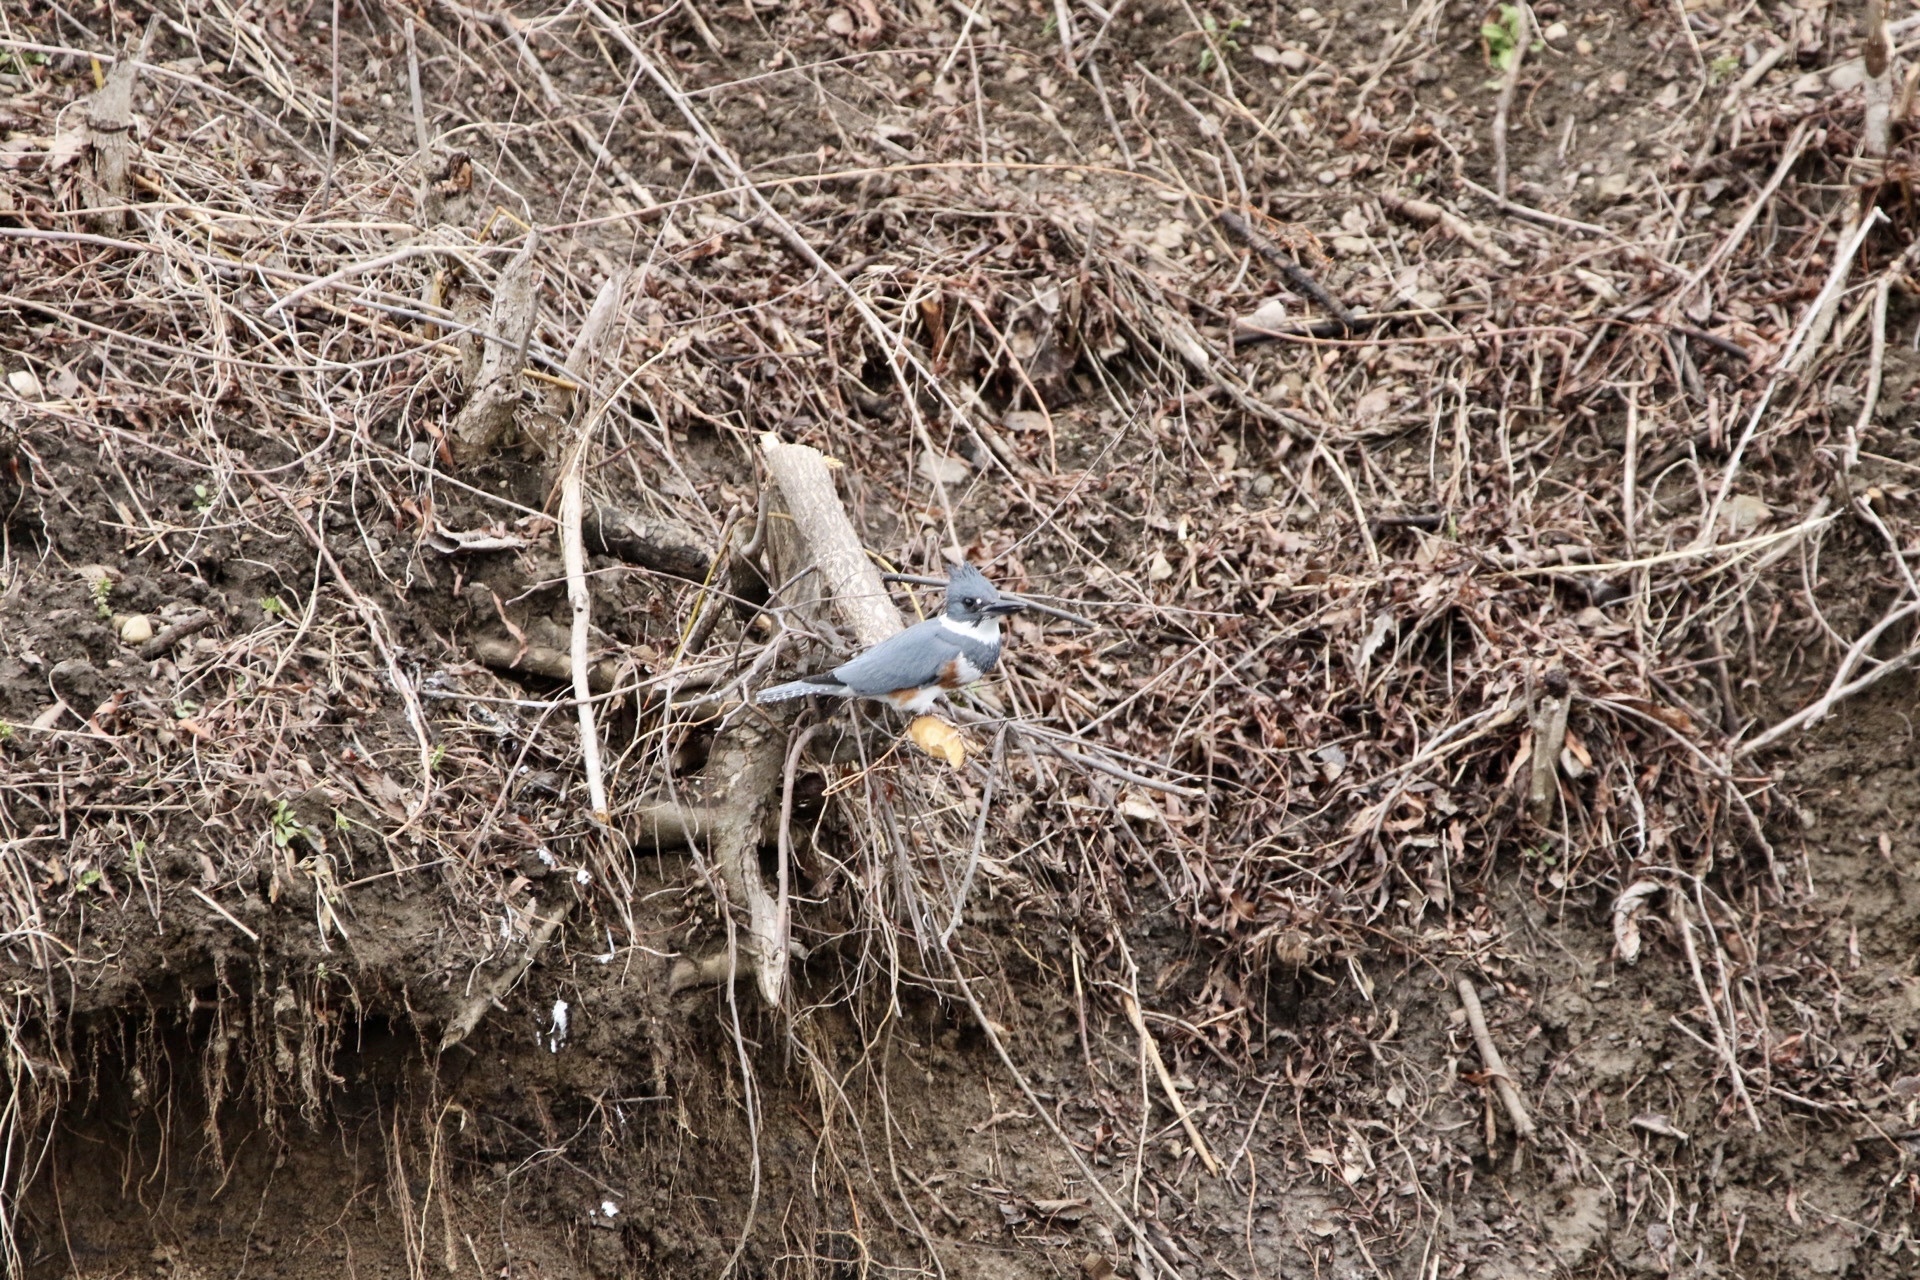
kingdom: Animalia
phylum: Chordata
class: Aves
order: Coraciiformes
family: Alcedinidae
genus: Megaceryle
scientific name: Megaceryle alcyon
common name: Belted kingfisher
